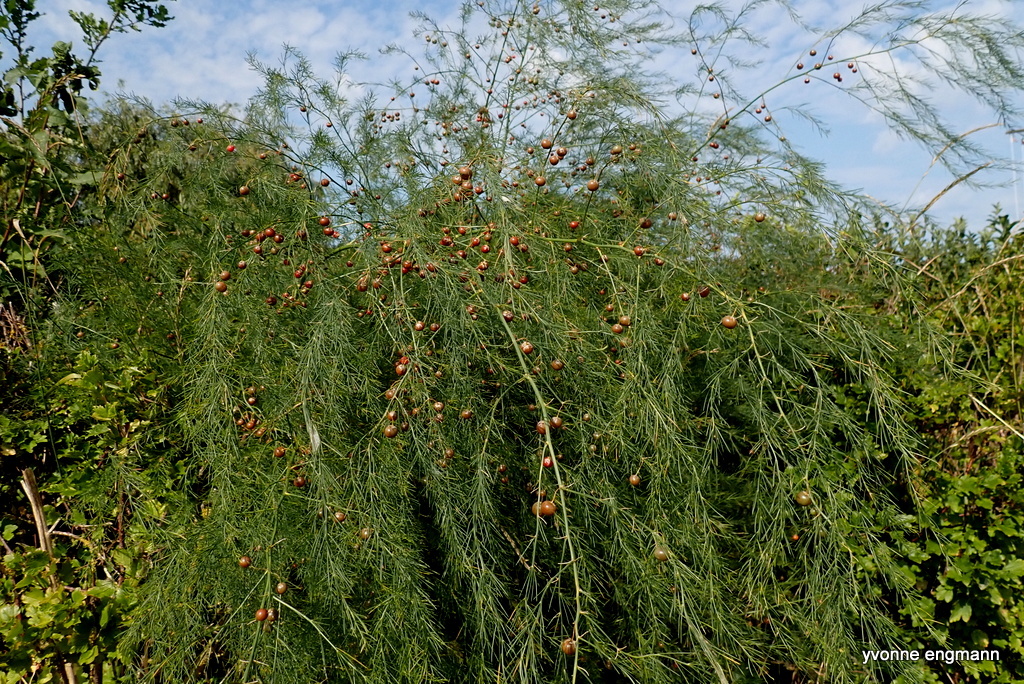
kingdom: Plantae
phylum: Tracheophyta
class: Liliopsida
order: Asparagales
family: Asparagaceae
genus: Asparagus
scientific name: Asparagus officinalis
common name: Garden asparagus
